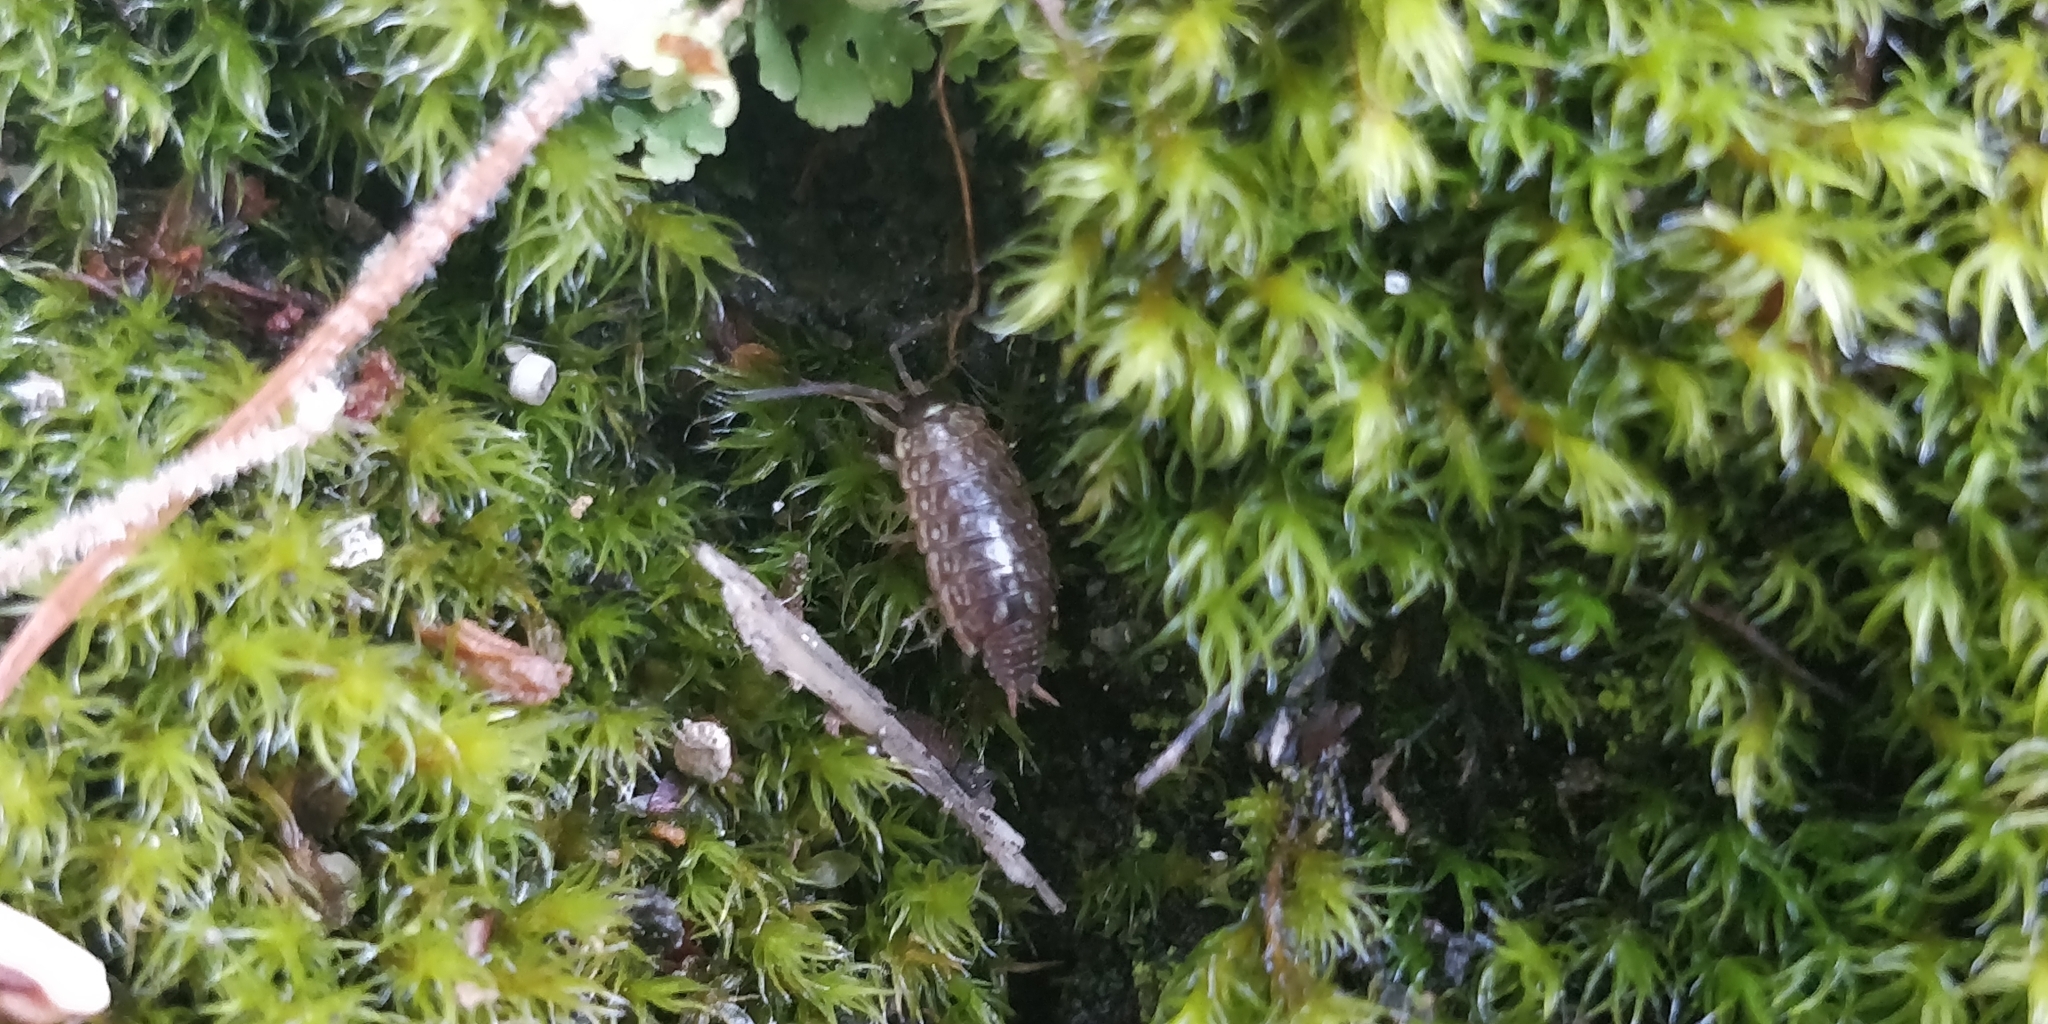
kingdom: Animalia
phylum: Arthropoda
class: Malacostraca
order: Isopoda
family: Philosciidae
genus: Philoscia
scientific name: Philoscia muscorum
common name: Common striped woodlouse
